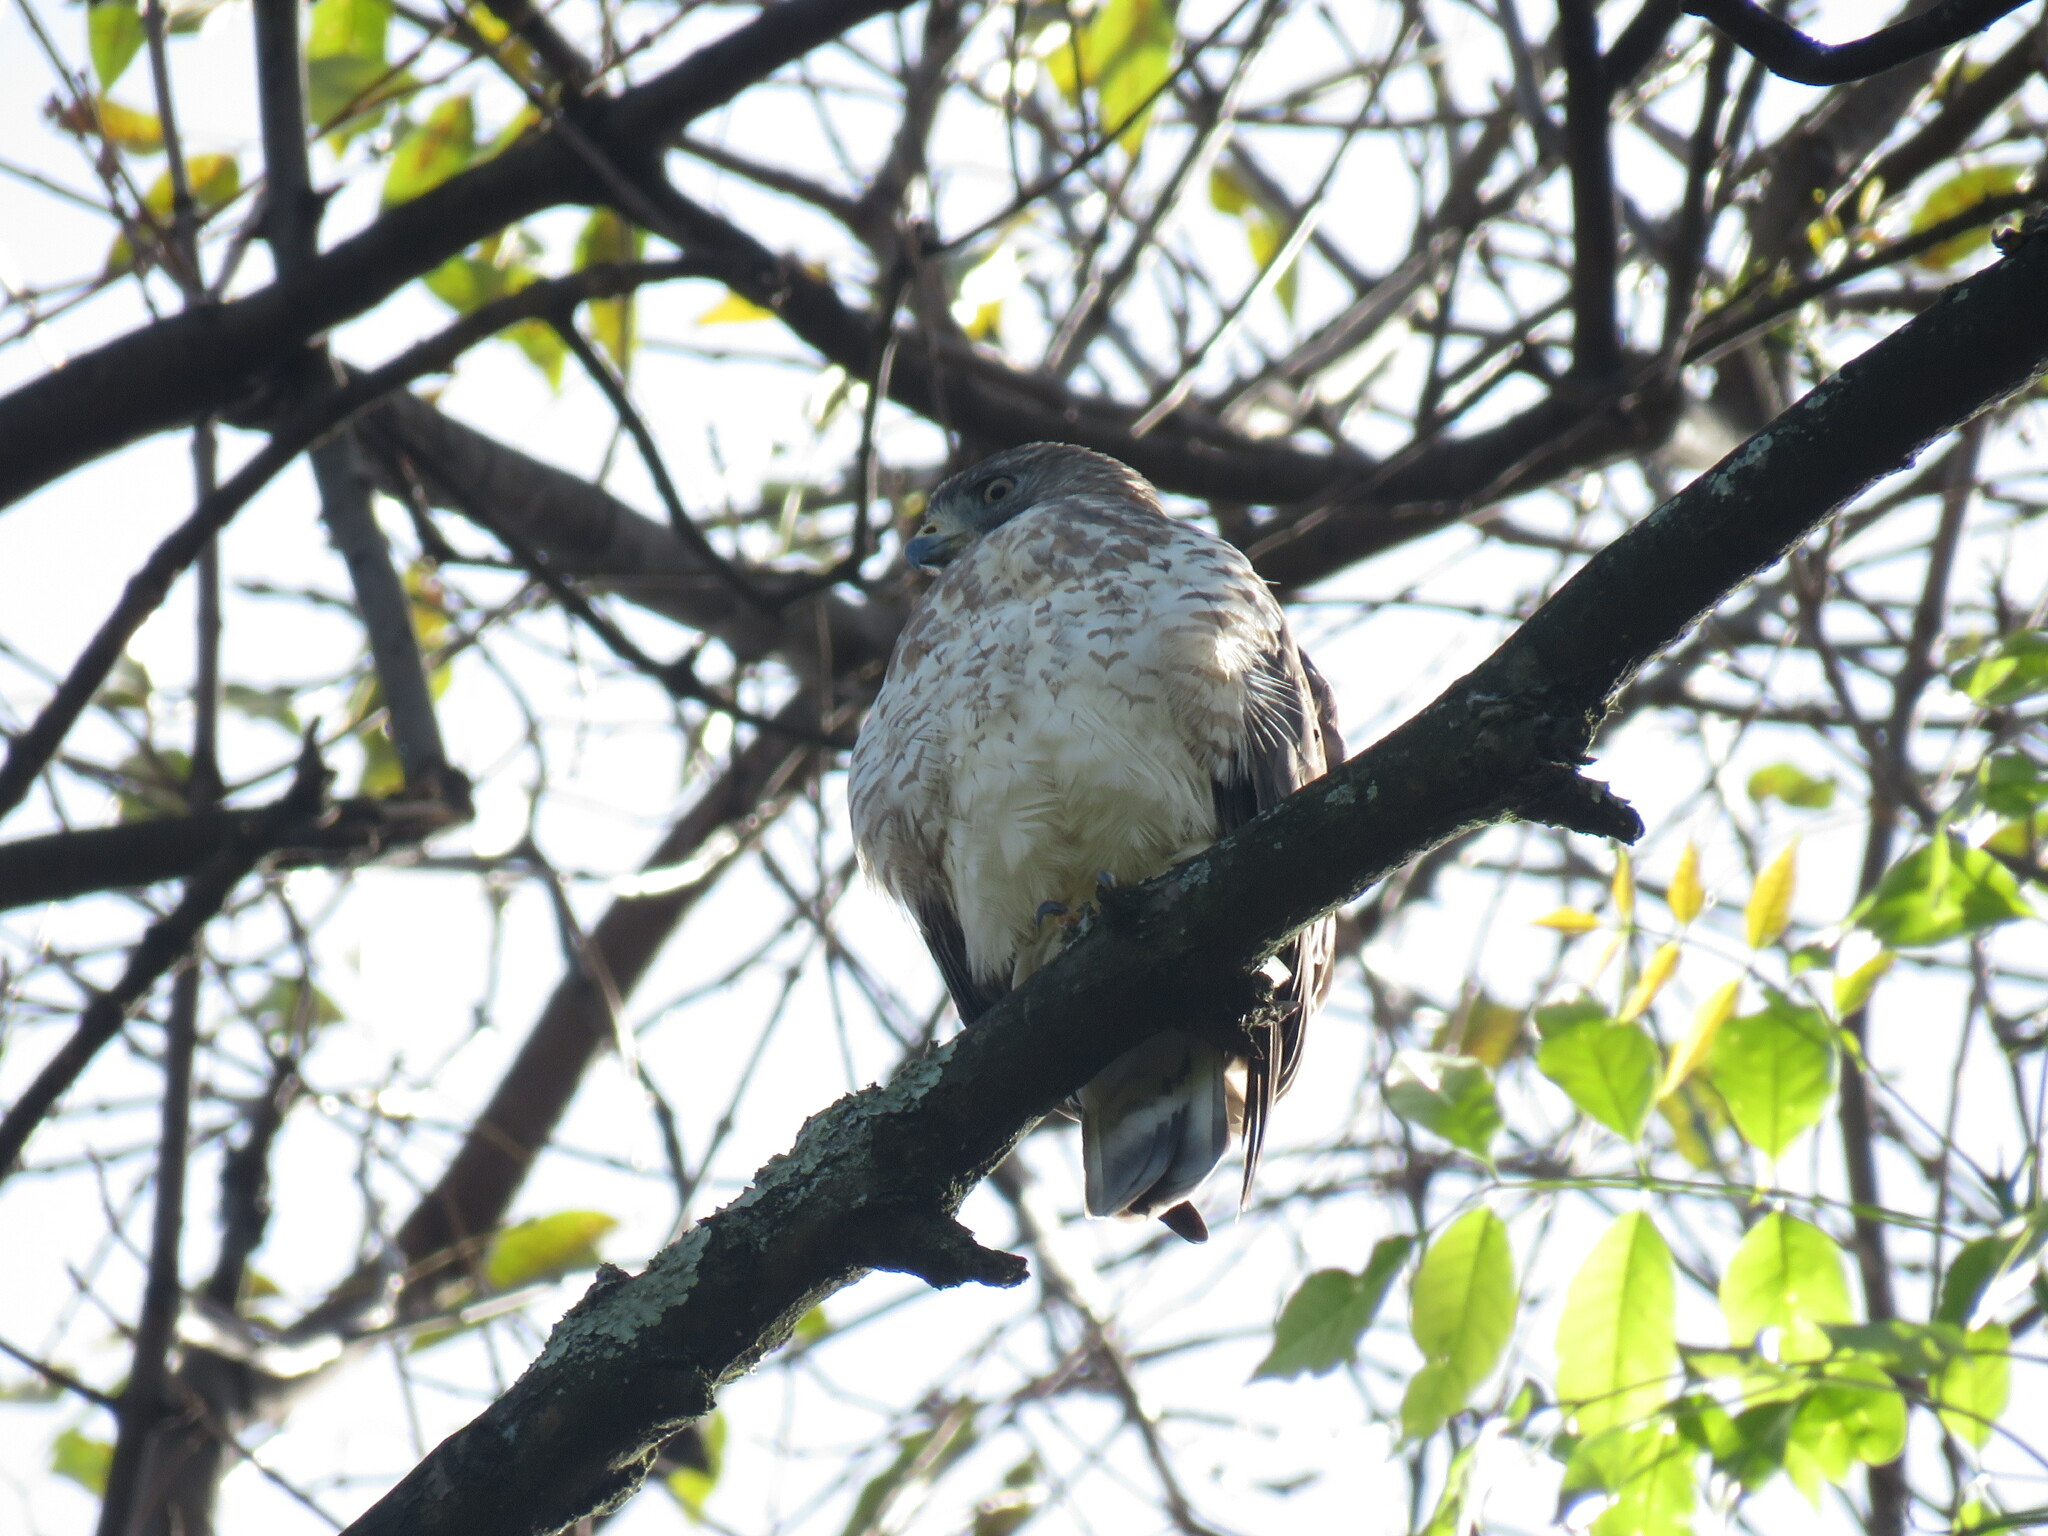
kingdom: Animalia
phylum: Chordata
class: Aves
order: Accipitriformes
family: Accipitridae
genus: Buteo
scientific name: Buteo platypterus
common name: Broad-winged hawk
